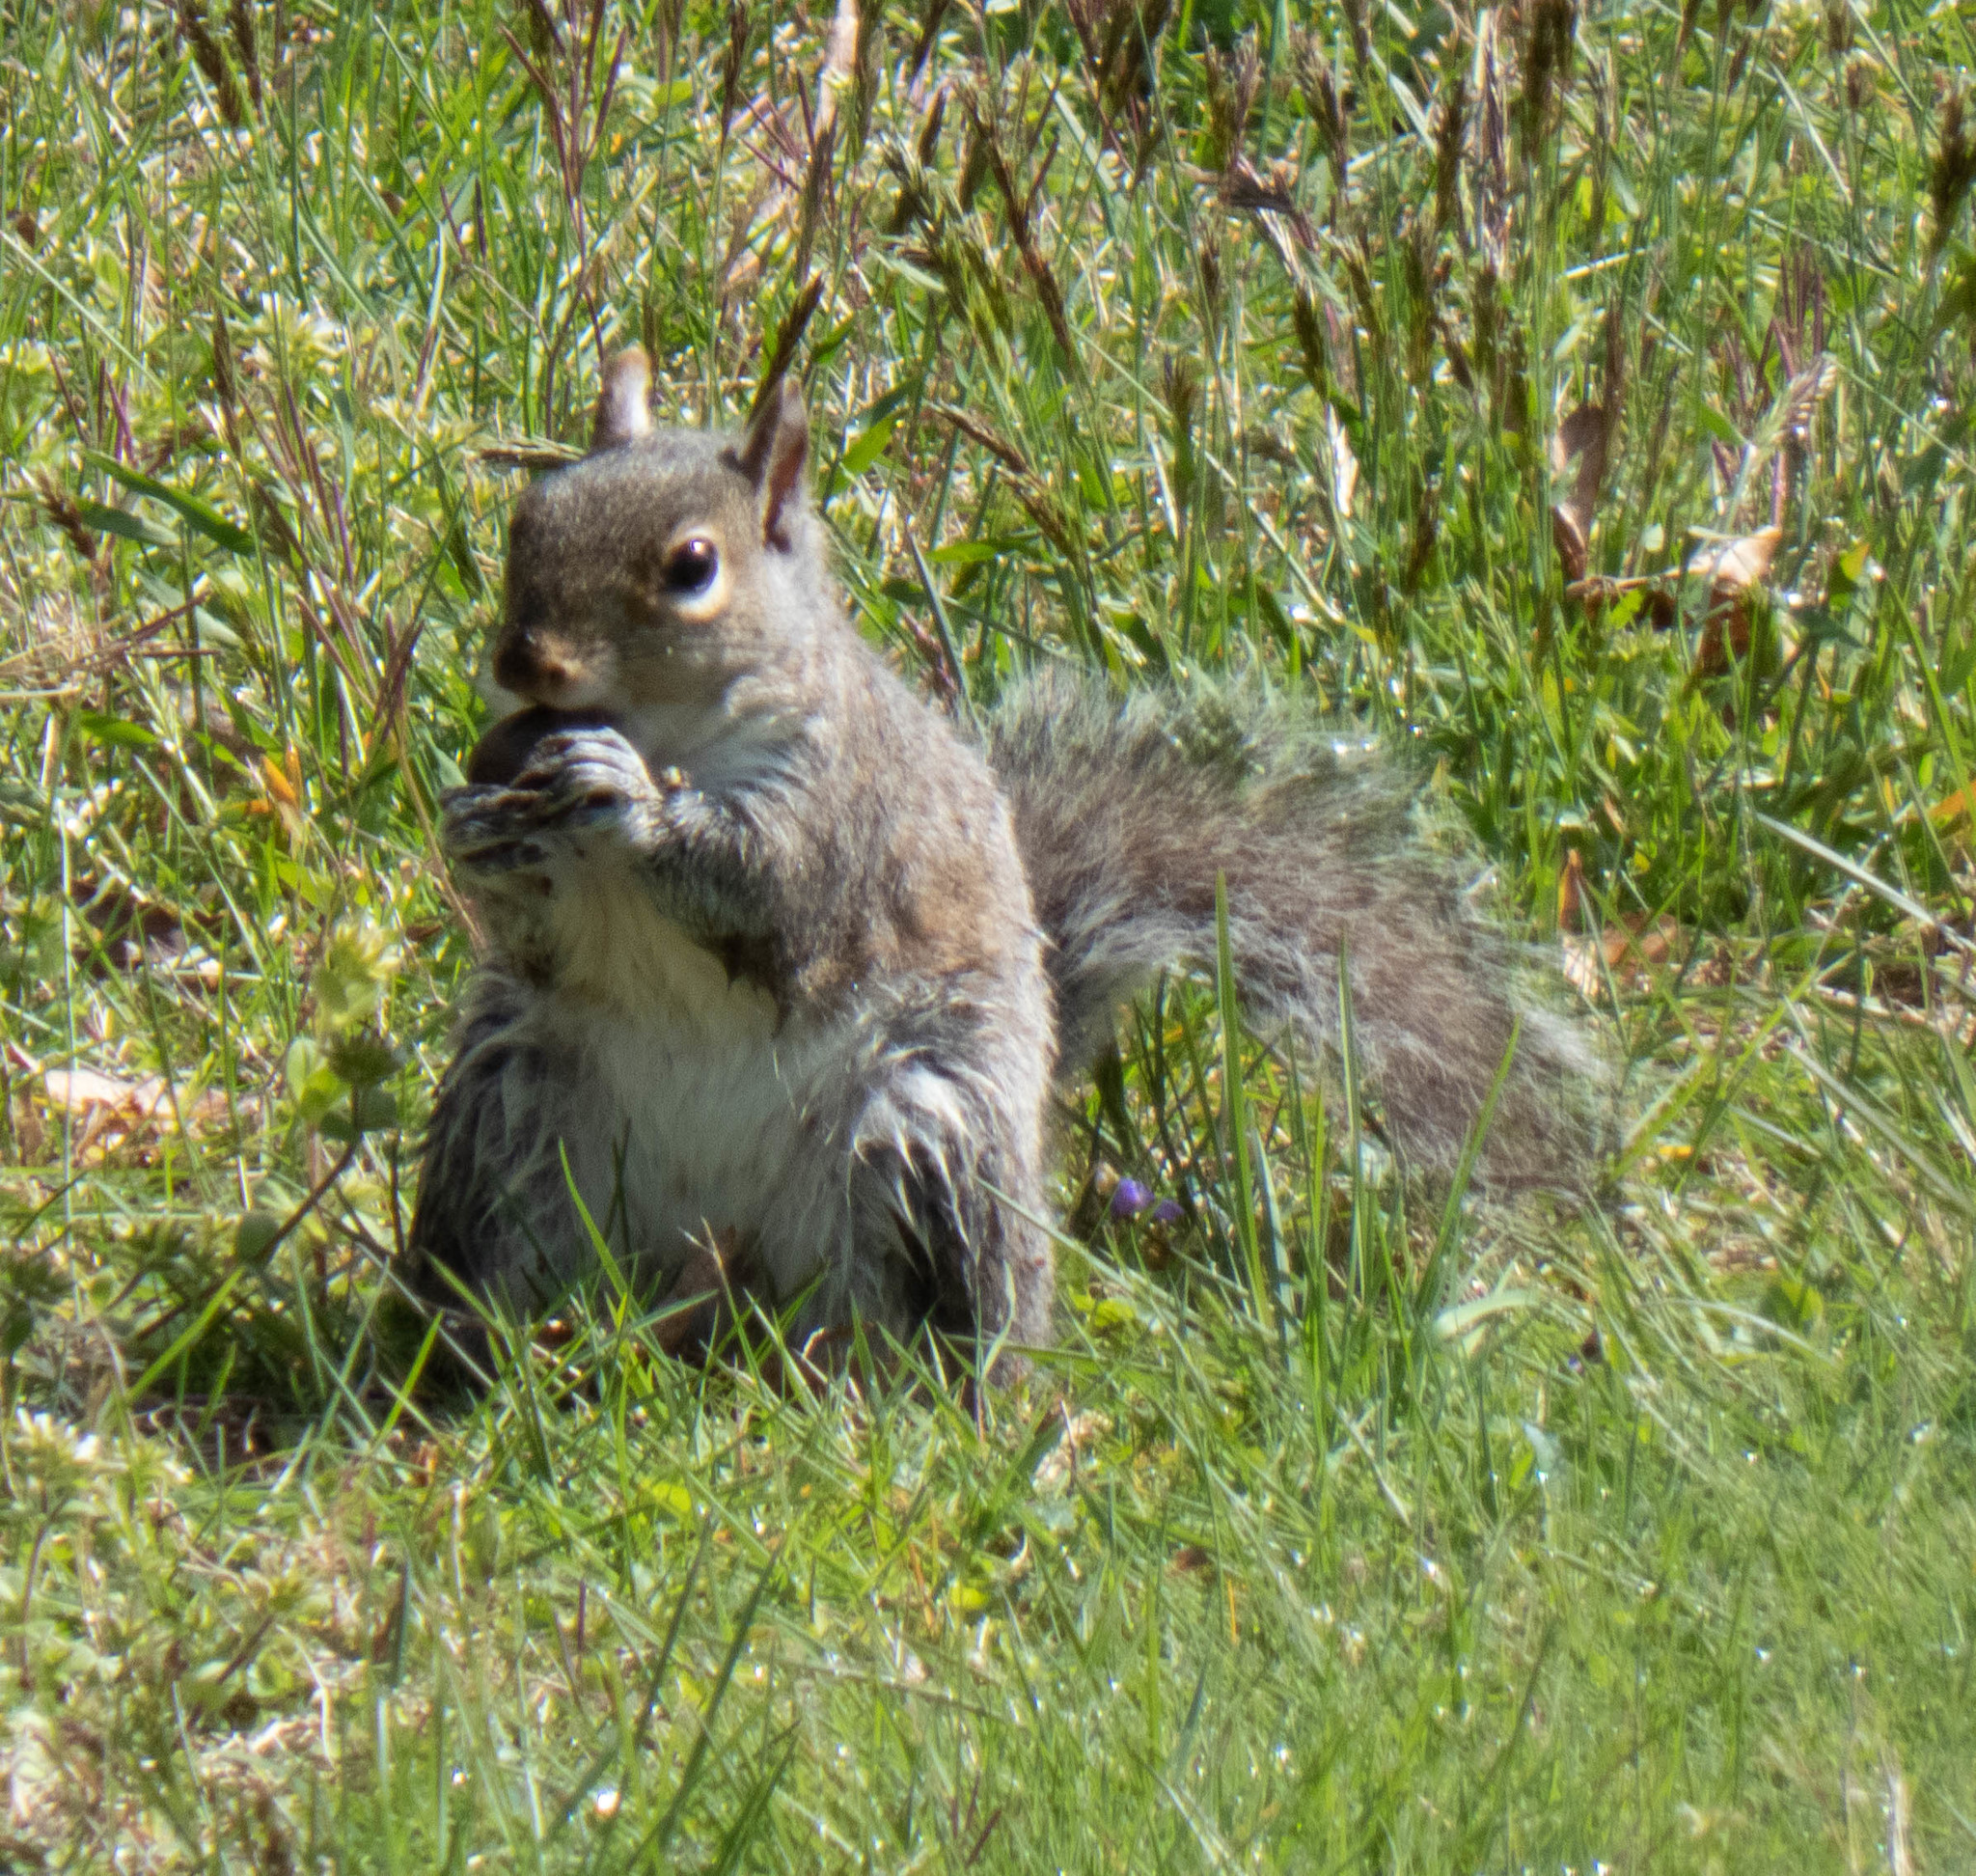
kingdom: Animalia
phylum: Chordata
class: Mammalia
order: Rodentia
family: Sciuridae
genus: Sciurus
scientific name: Sciurus carolinensis
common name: Eastern gray squirrel
